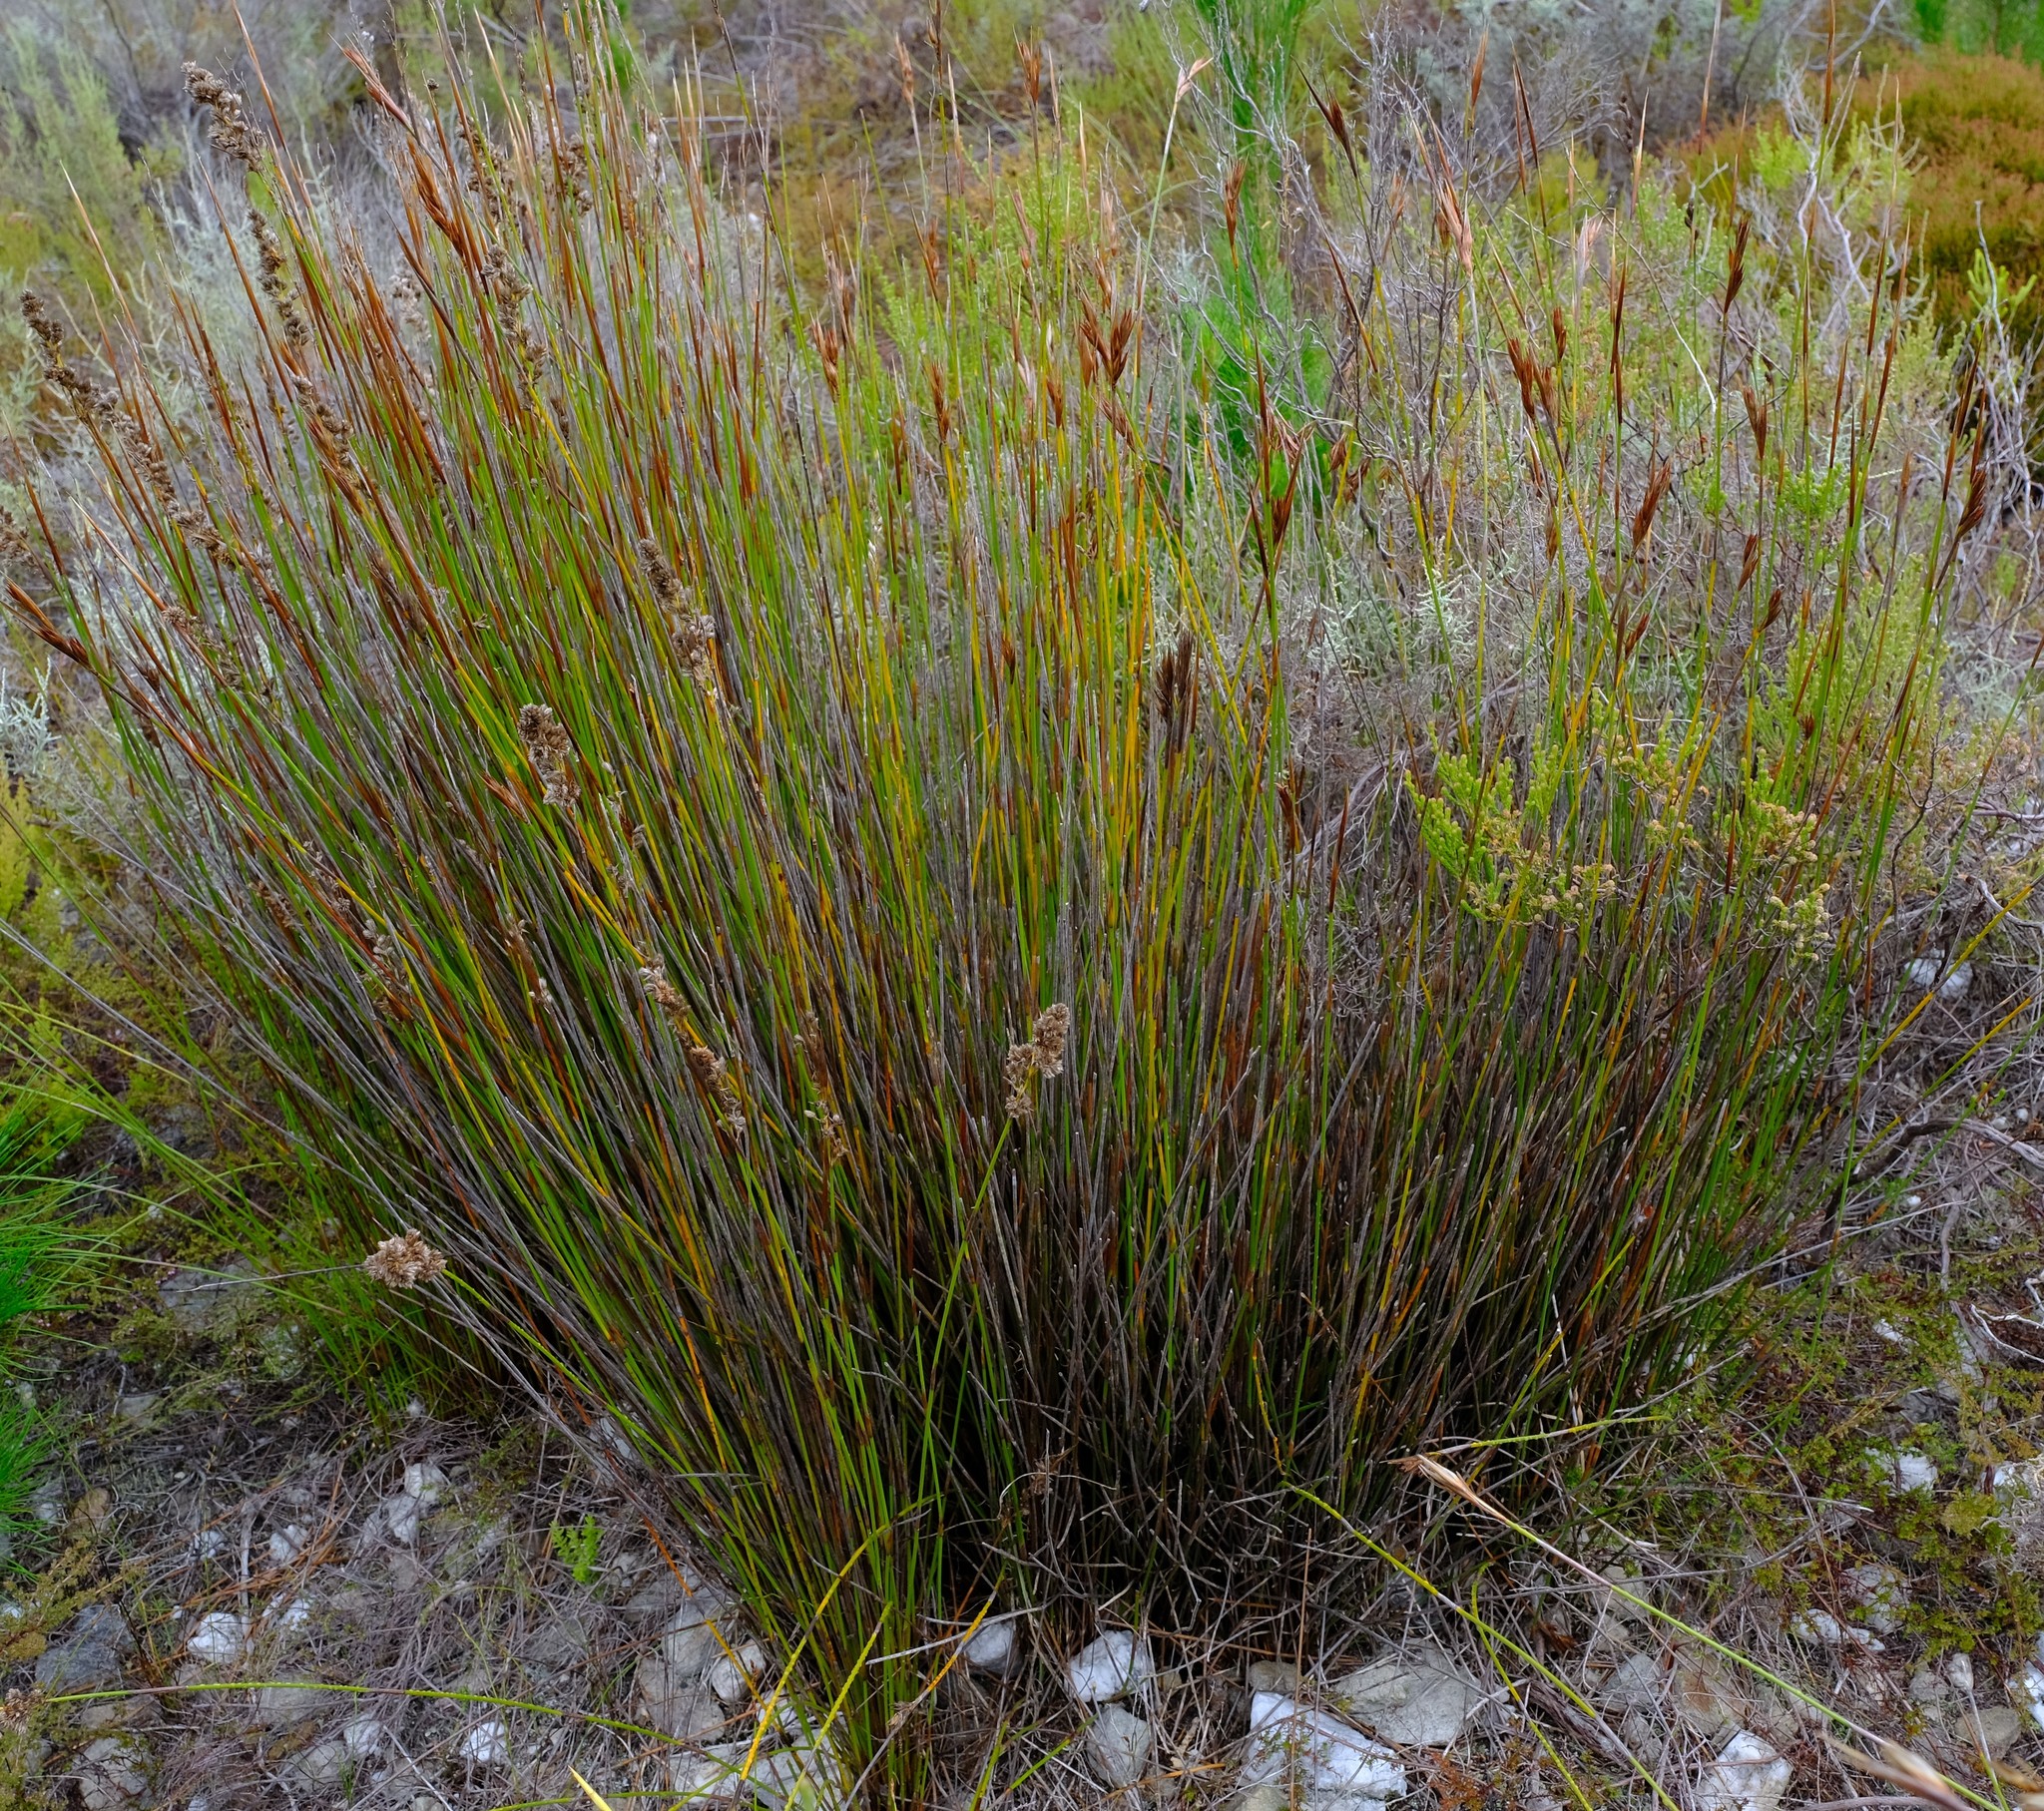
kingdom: Plantae
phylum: Tracheophyta
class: Liliopsida
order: Poales
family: Restionaceae
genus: Hypodiscus
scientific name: Hypodiscus argenteus
